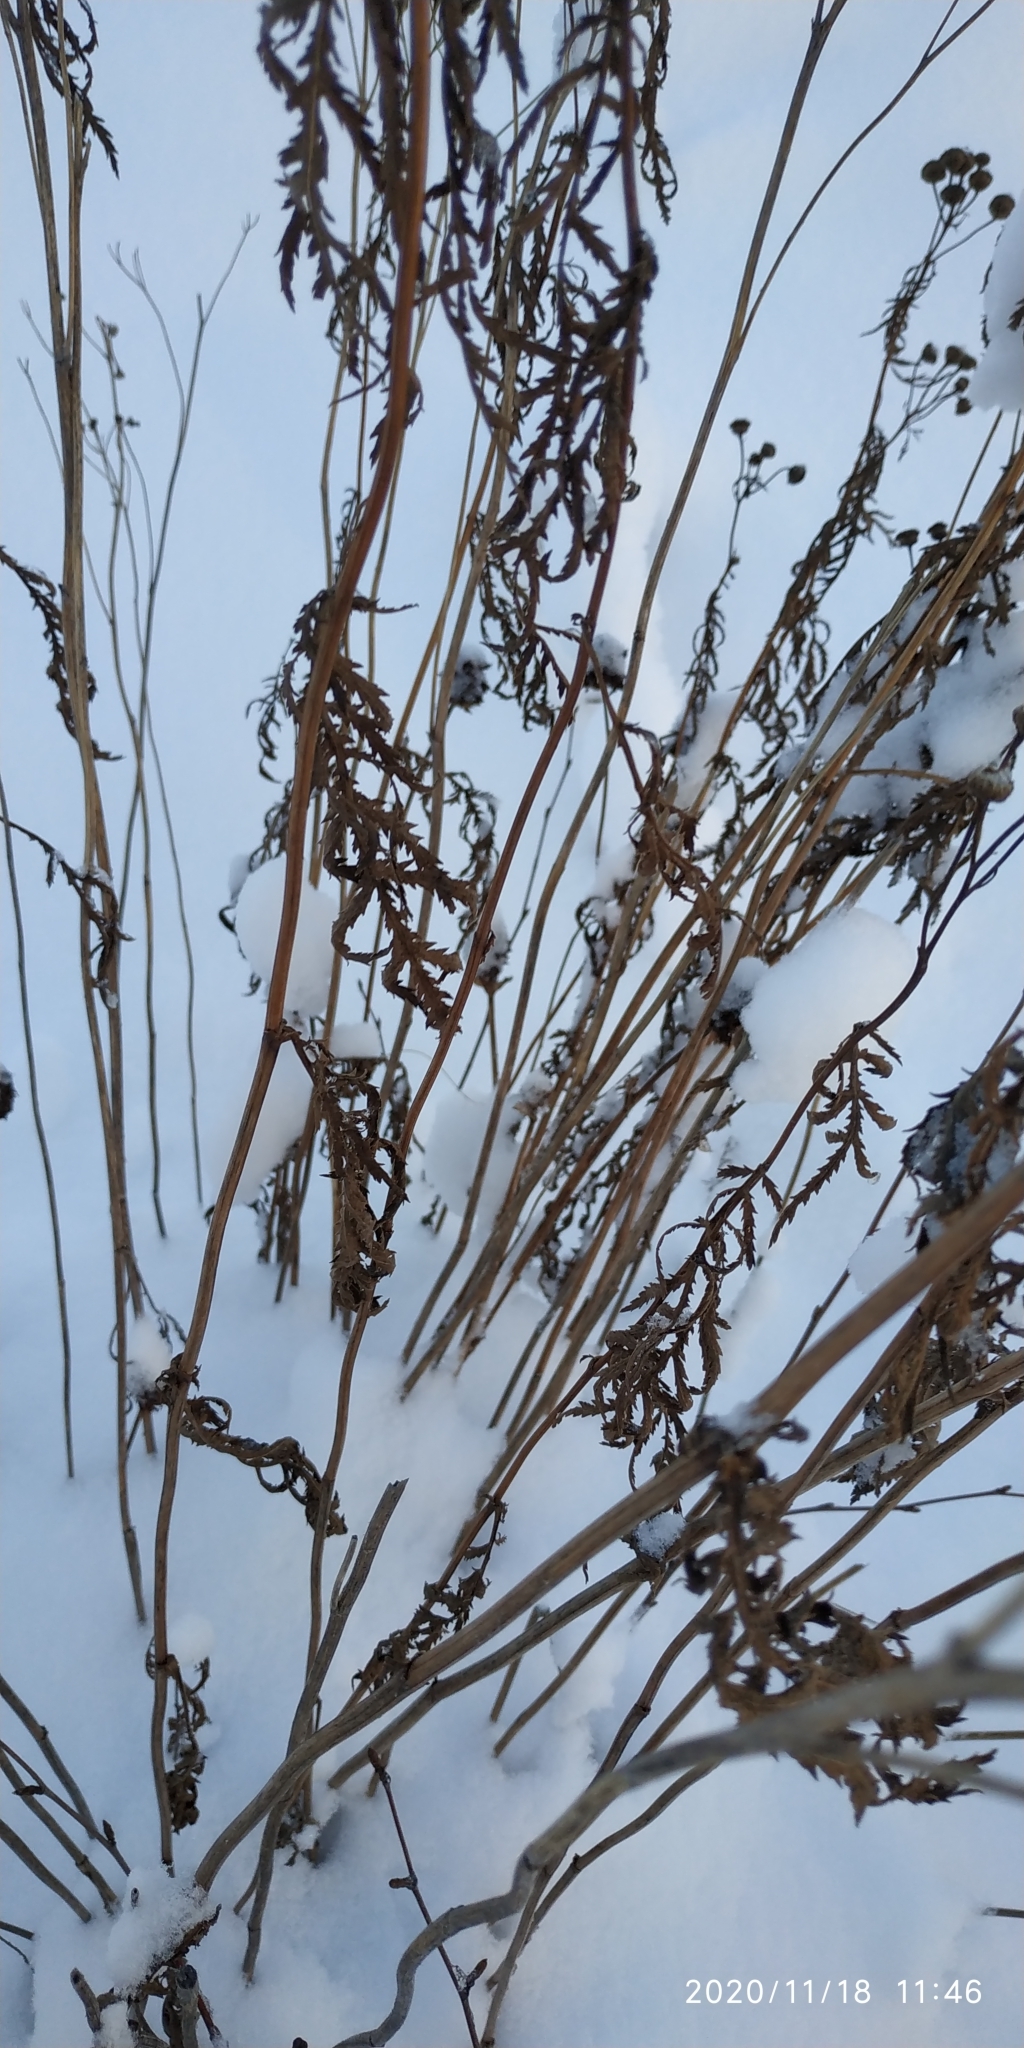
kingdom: Plantae
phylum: Tracheophyta
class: Magnoliopsida
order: Asterales
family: Asteraceae
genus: Tanacetum
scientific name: Tanacetum vulgare
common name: Common tansy
